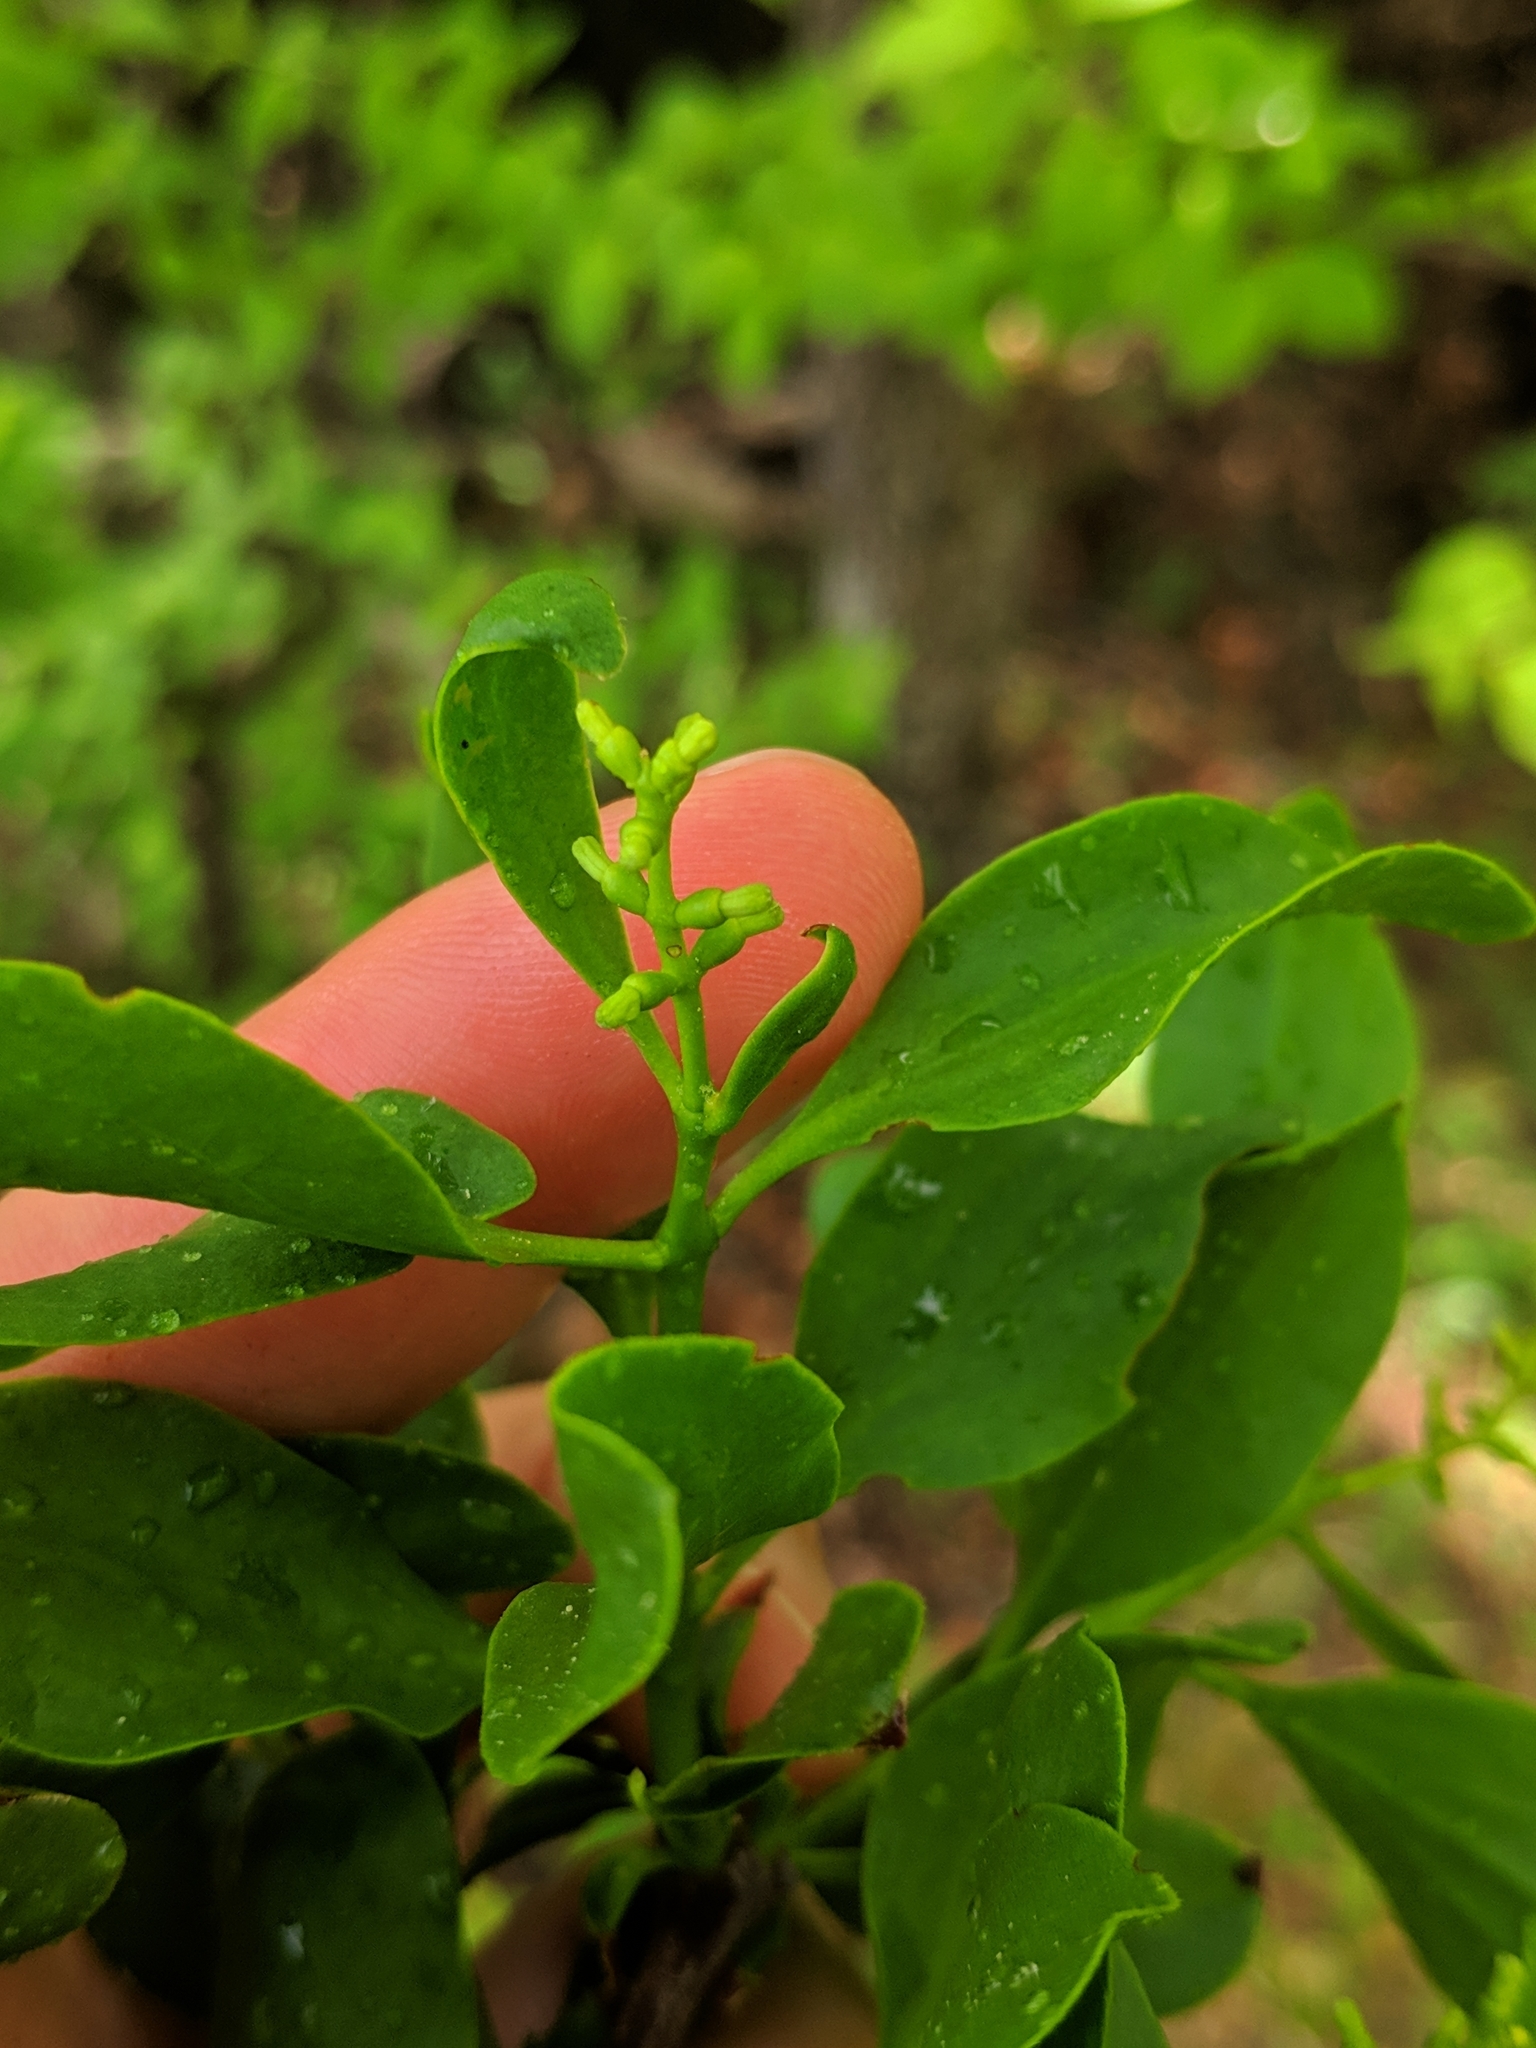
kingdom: Plantae
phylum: Tracheophyta
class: Magnoliopsida
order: Santalales
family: Loranthaceae
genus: Loranthus
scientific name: Loranthus europaeus
